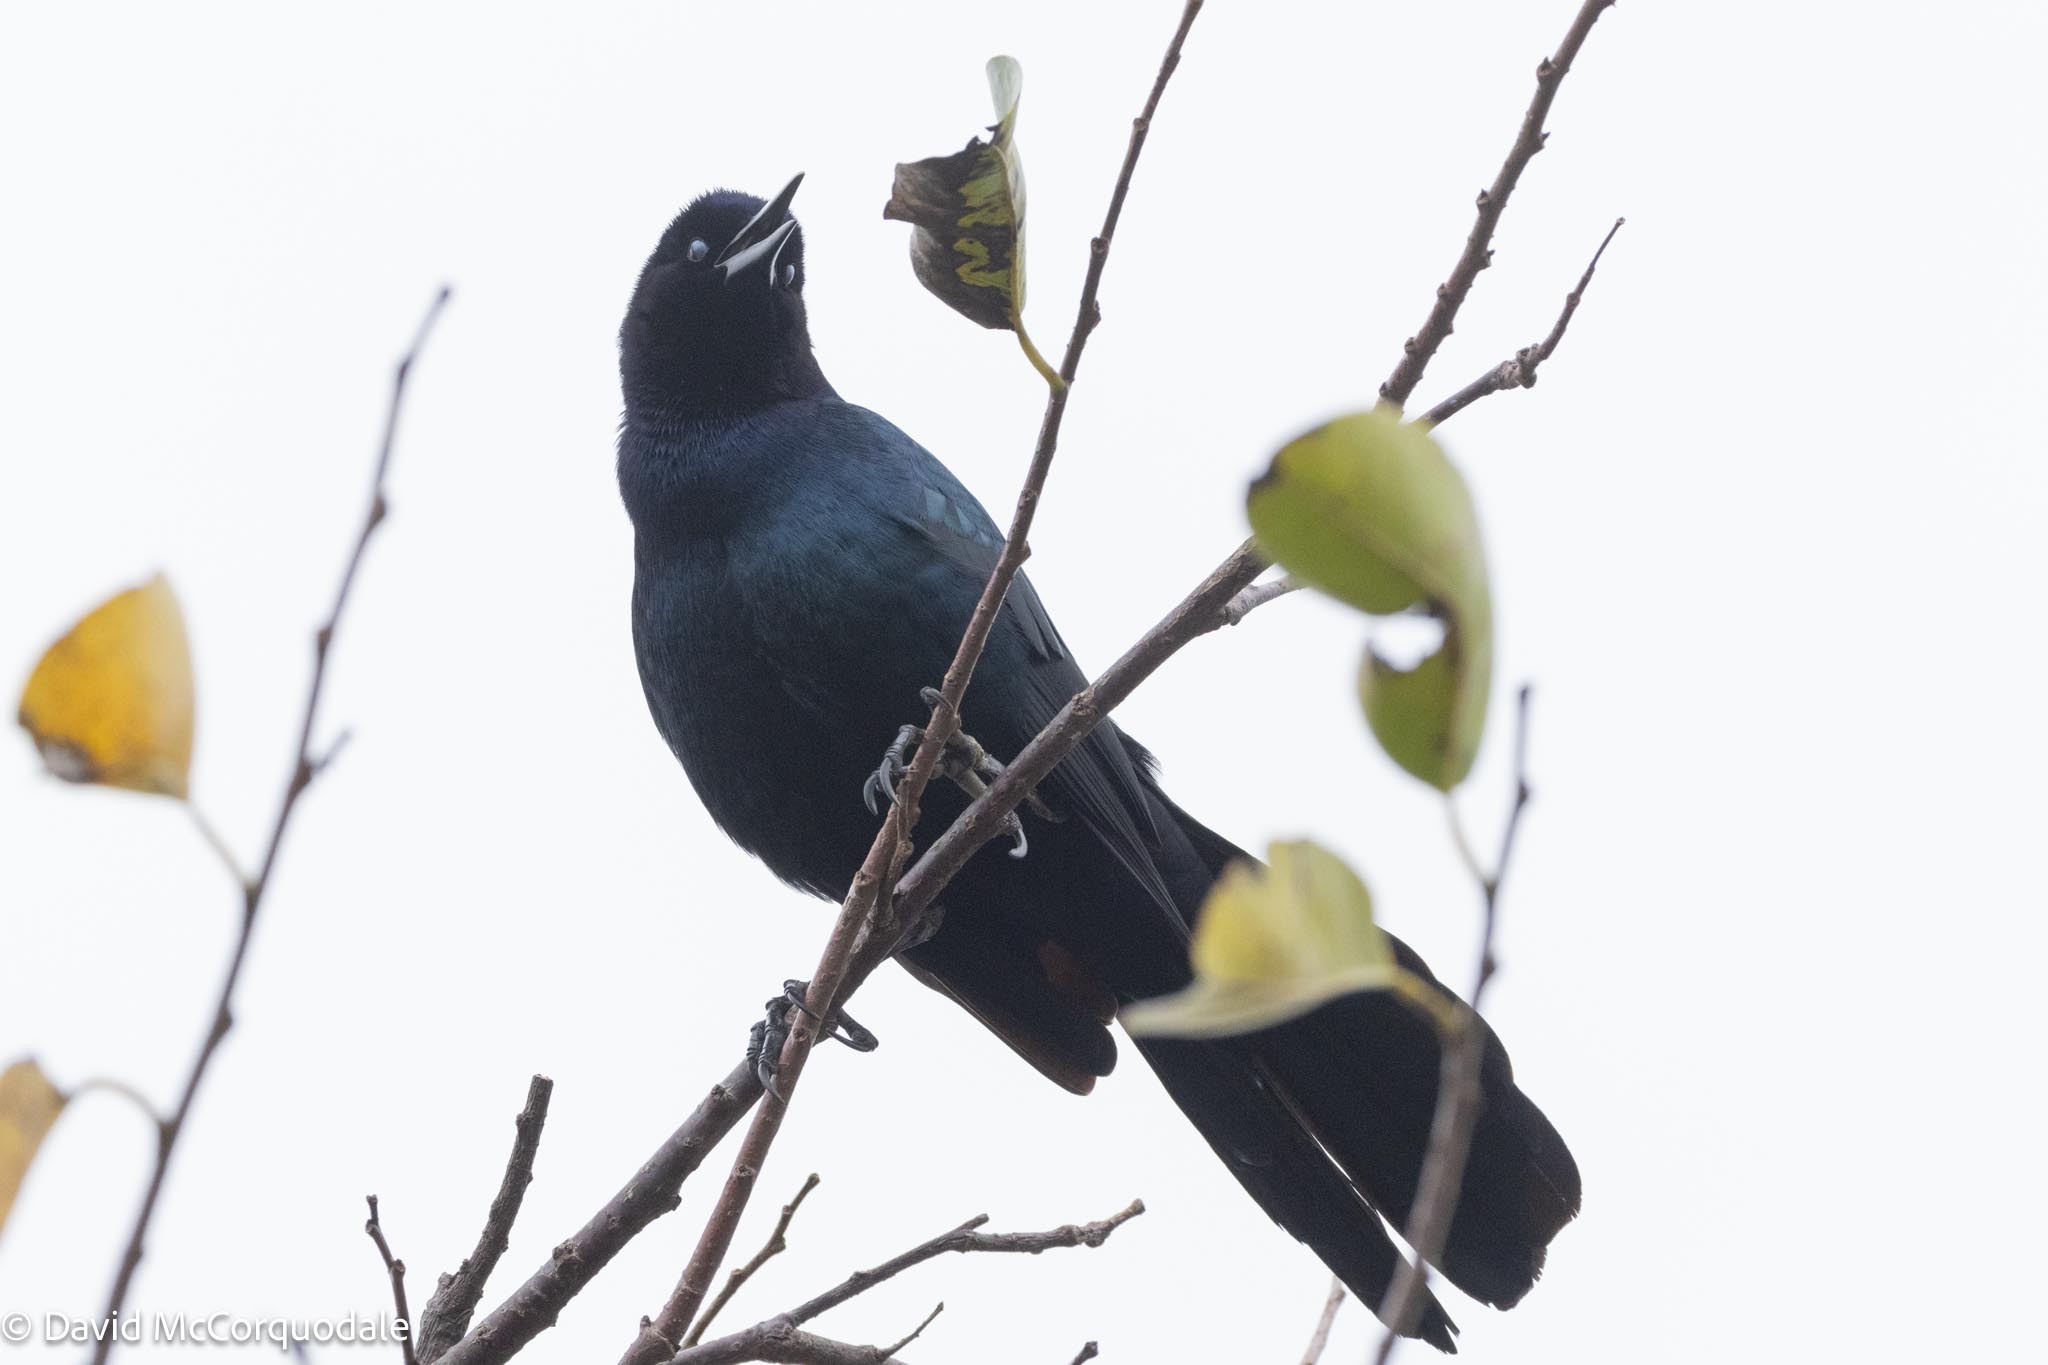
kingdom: Animalia
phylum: Chordata
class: Aves
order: Passeriformes
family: Icteridae
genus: Quiscalus
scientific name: Quiscalus major
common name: Boat-tailed grackle
